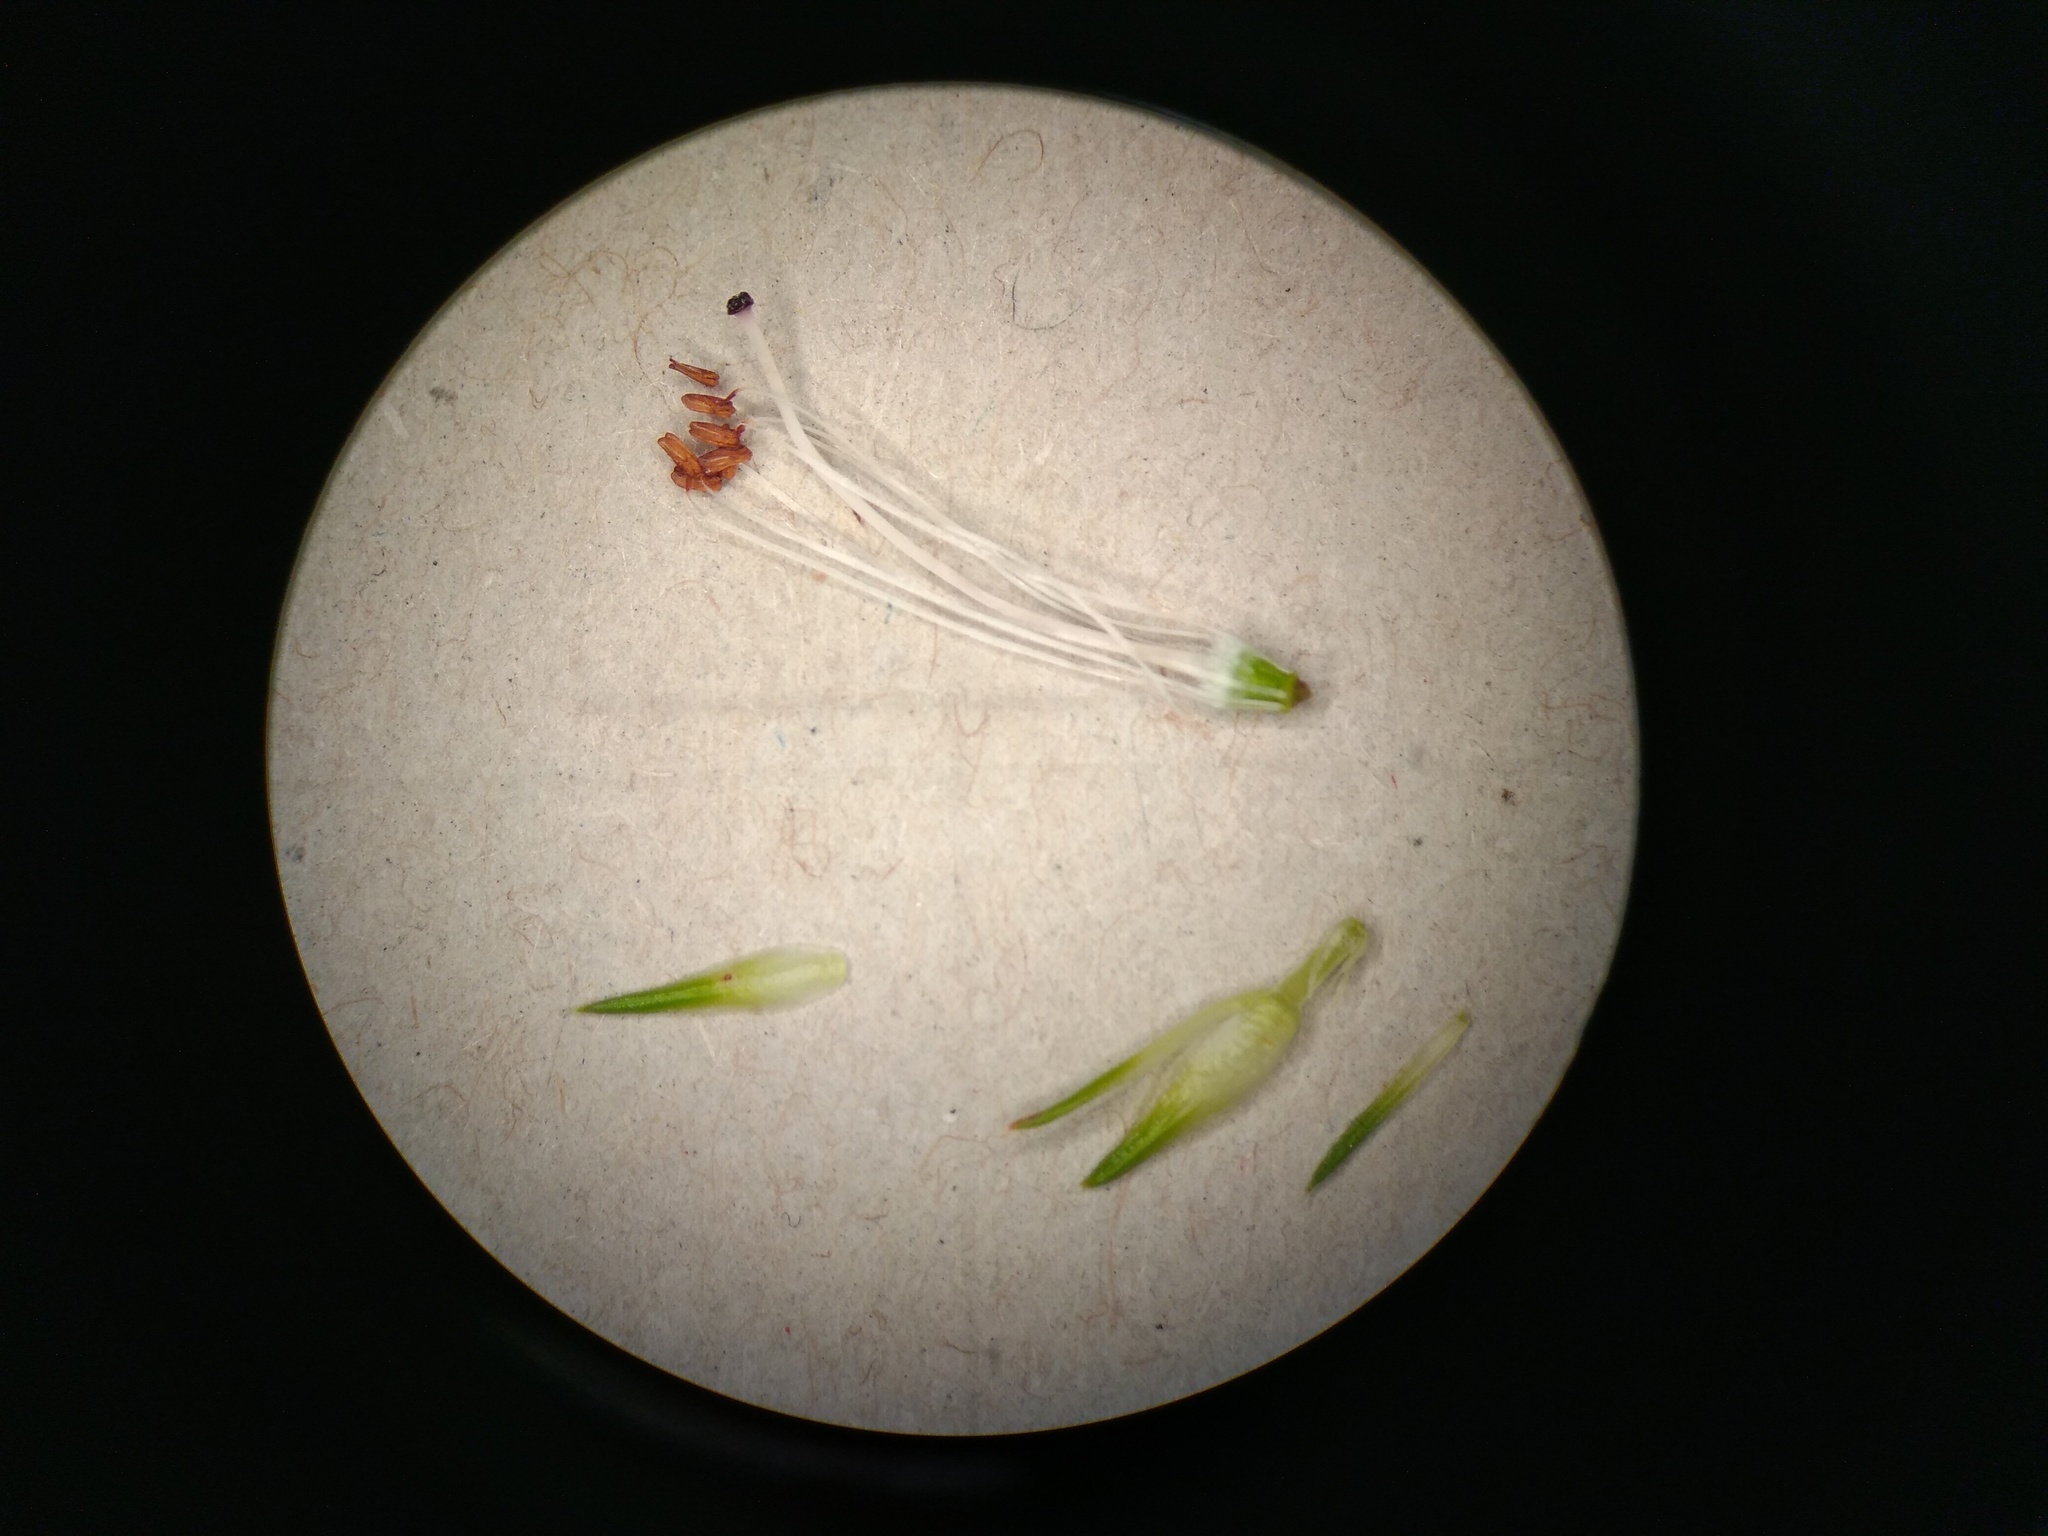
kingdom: Plantae
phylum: Tracheophyta
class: Magnoliopsida
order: Ericales
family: Ericaceae
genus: Erica
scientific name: Erica vestita
